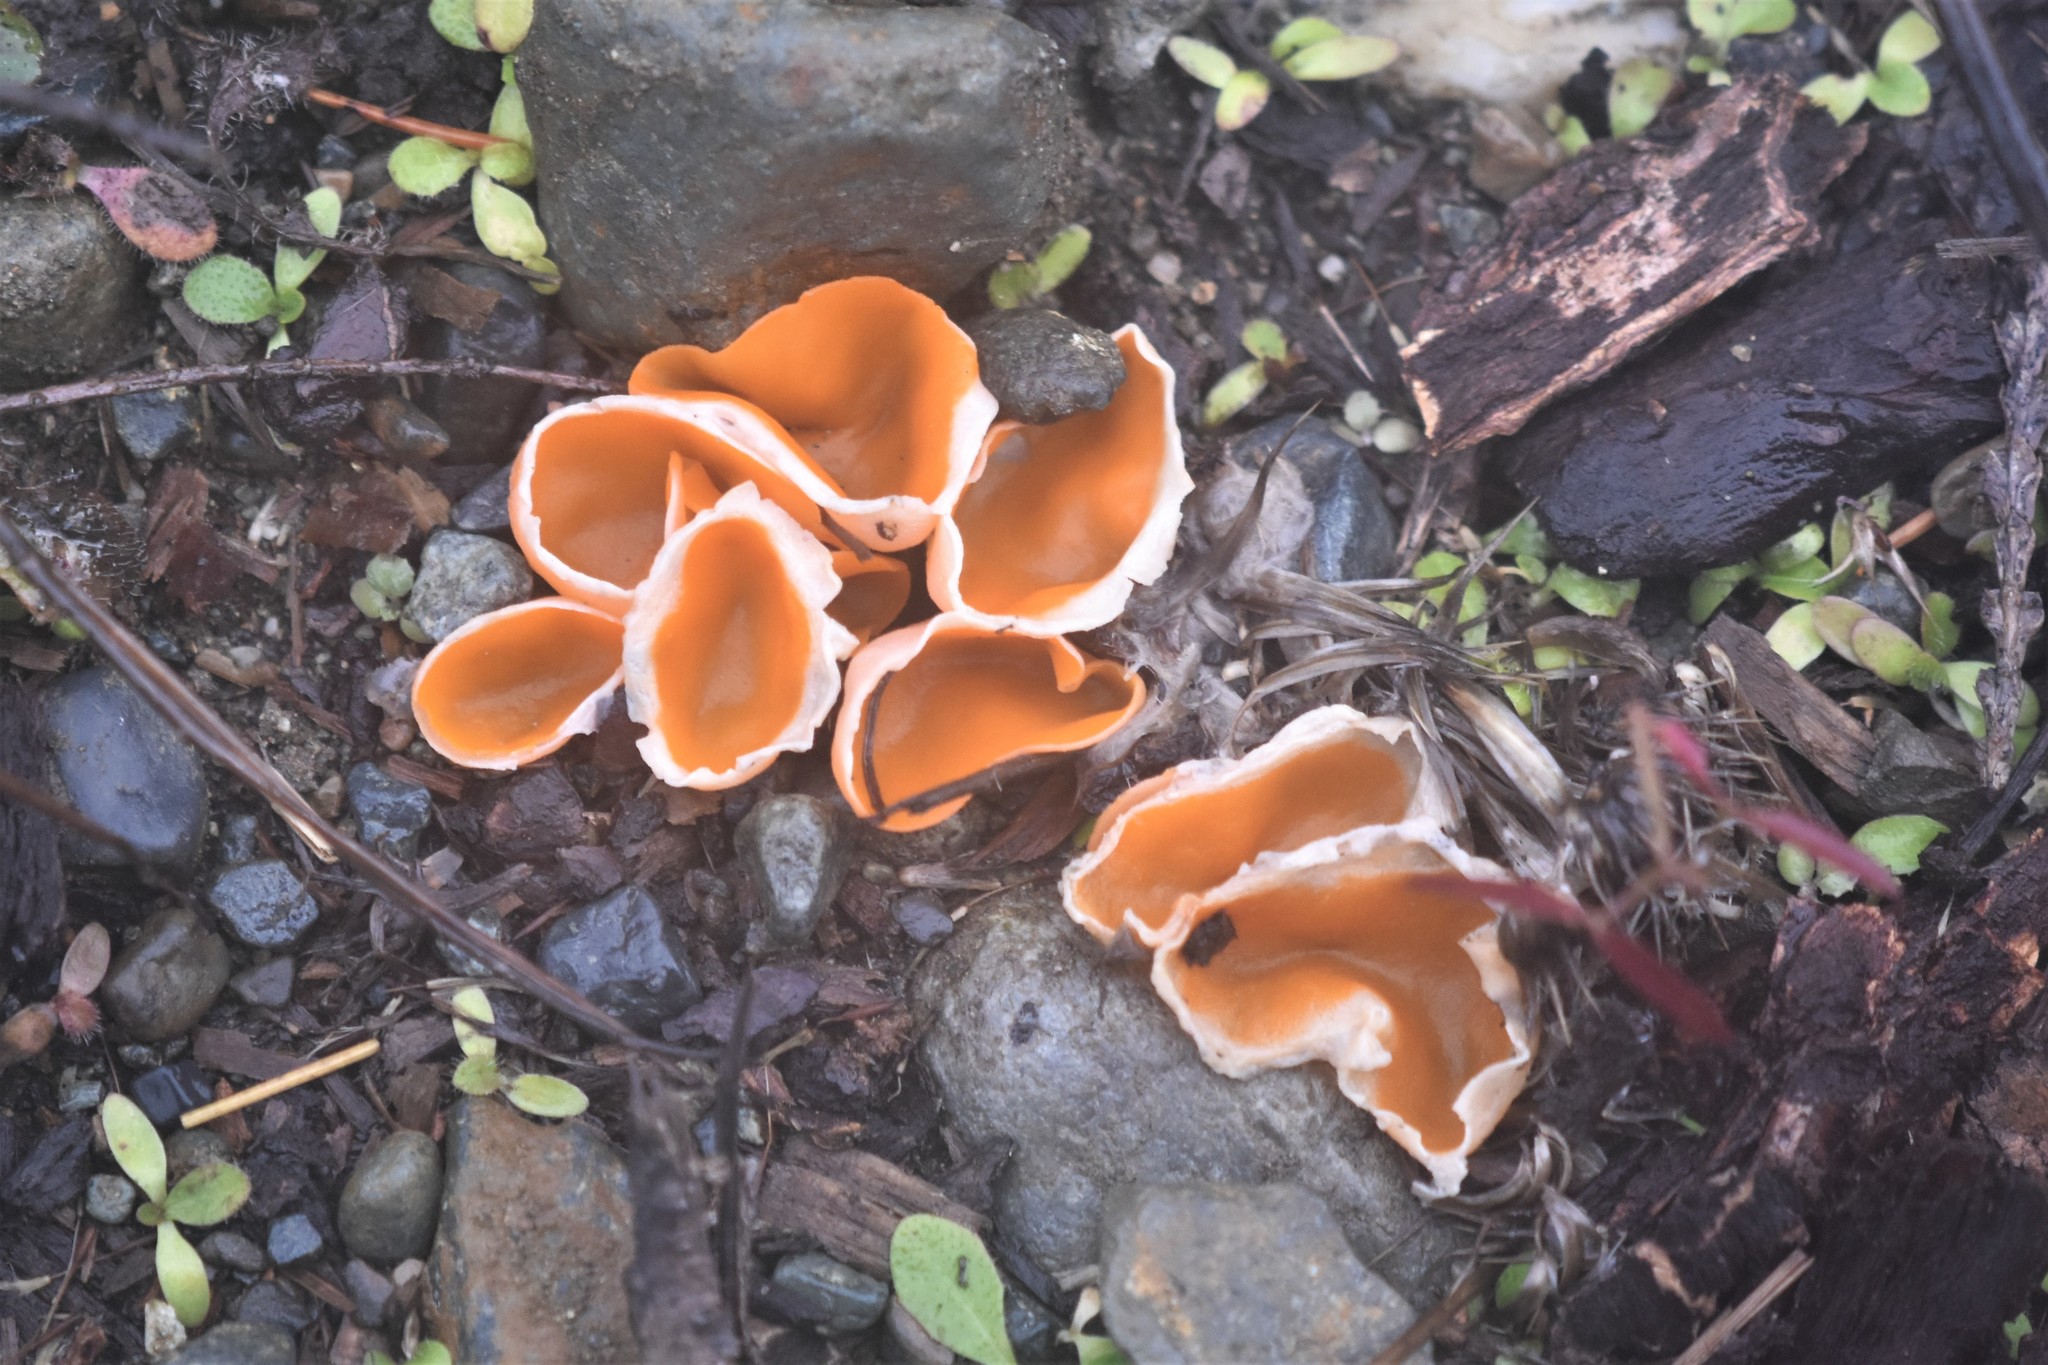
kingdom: Fungi
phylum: Ascomycota
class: Pezizomycetes
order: Pezizales
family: Pyronemataceae
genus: Aleuria
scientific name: Aleuria aurantia
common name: Orange peel fungus
